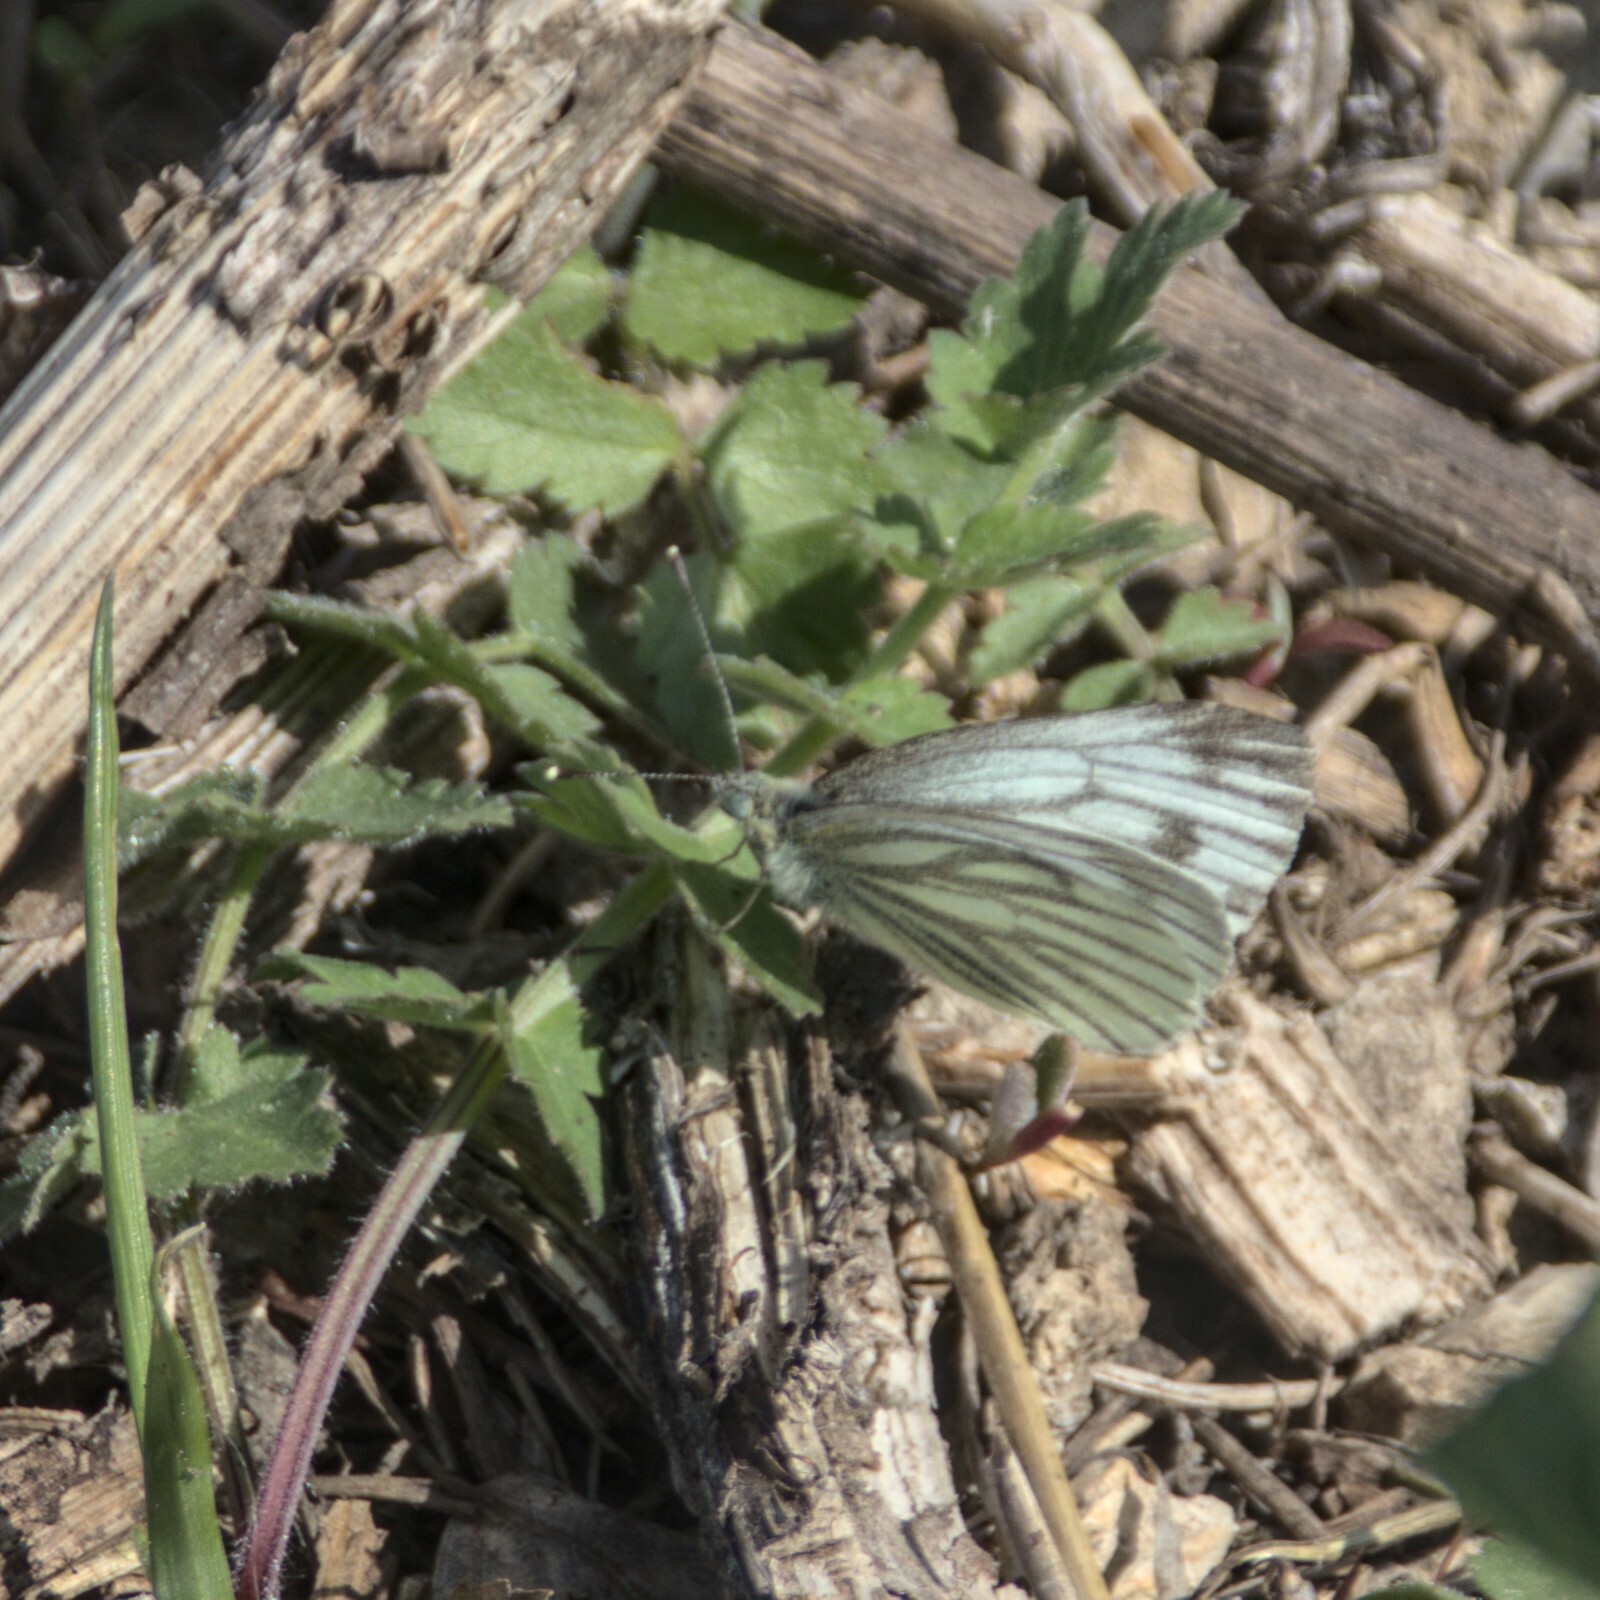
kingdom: Animalia
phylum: Arthropoda
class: Insecta
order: Lepidoptera
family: Pieridae
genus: Pieris
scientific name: Pieris napi
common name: Green-veined white
